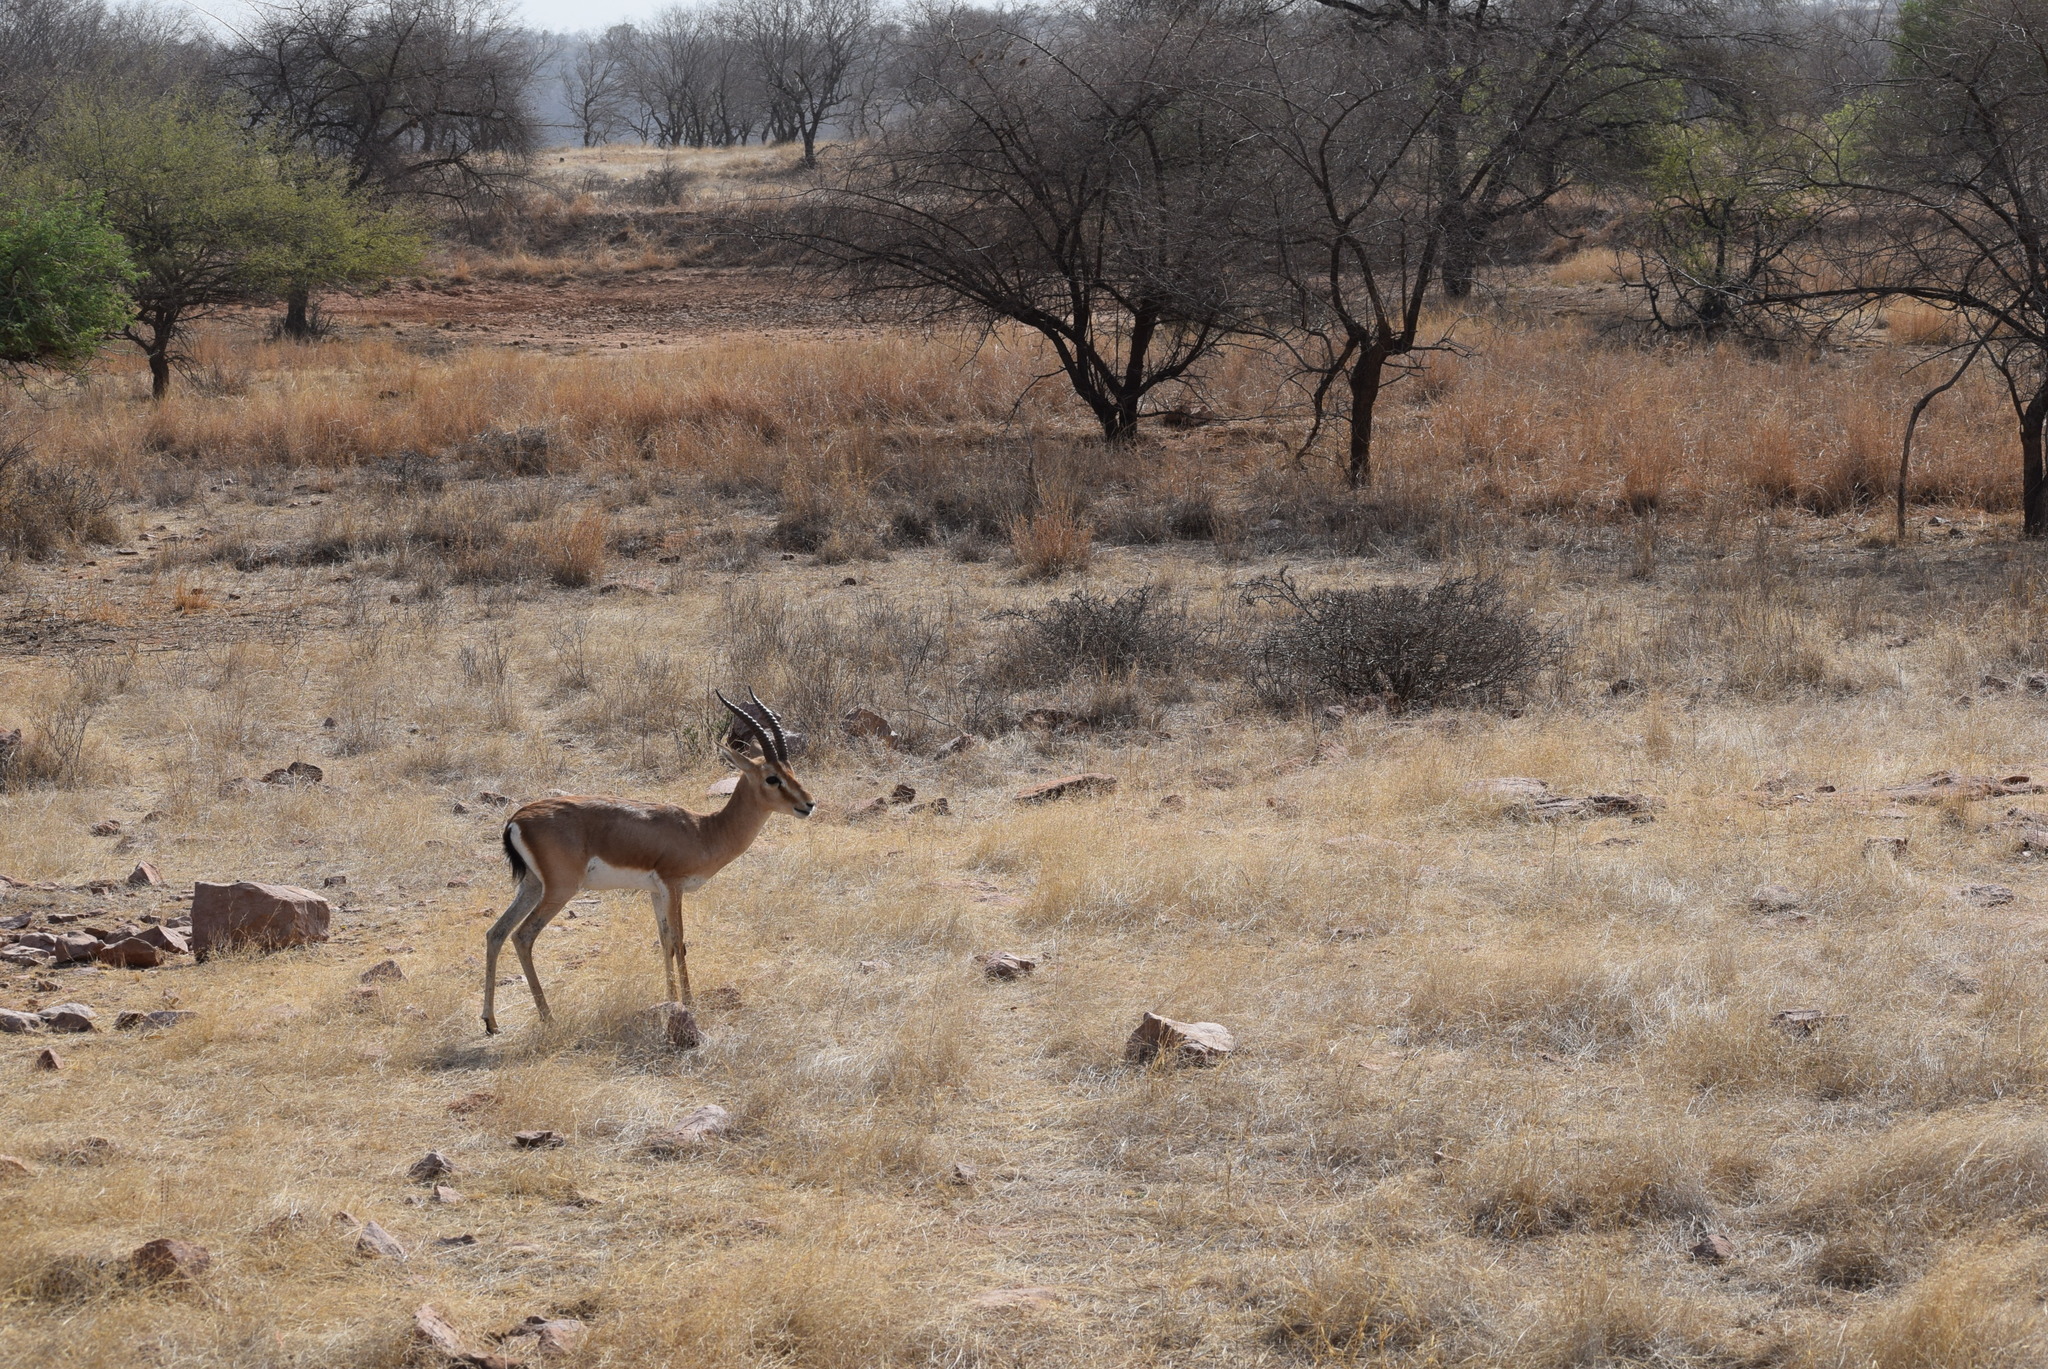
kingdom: Animalia
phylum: Chordata
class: Mammalia
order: Artiodactyla
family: Bovidae
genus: Gazella
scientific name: Gazella bennettii
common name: Indian gazelle
